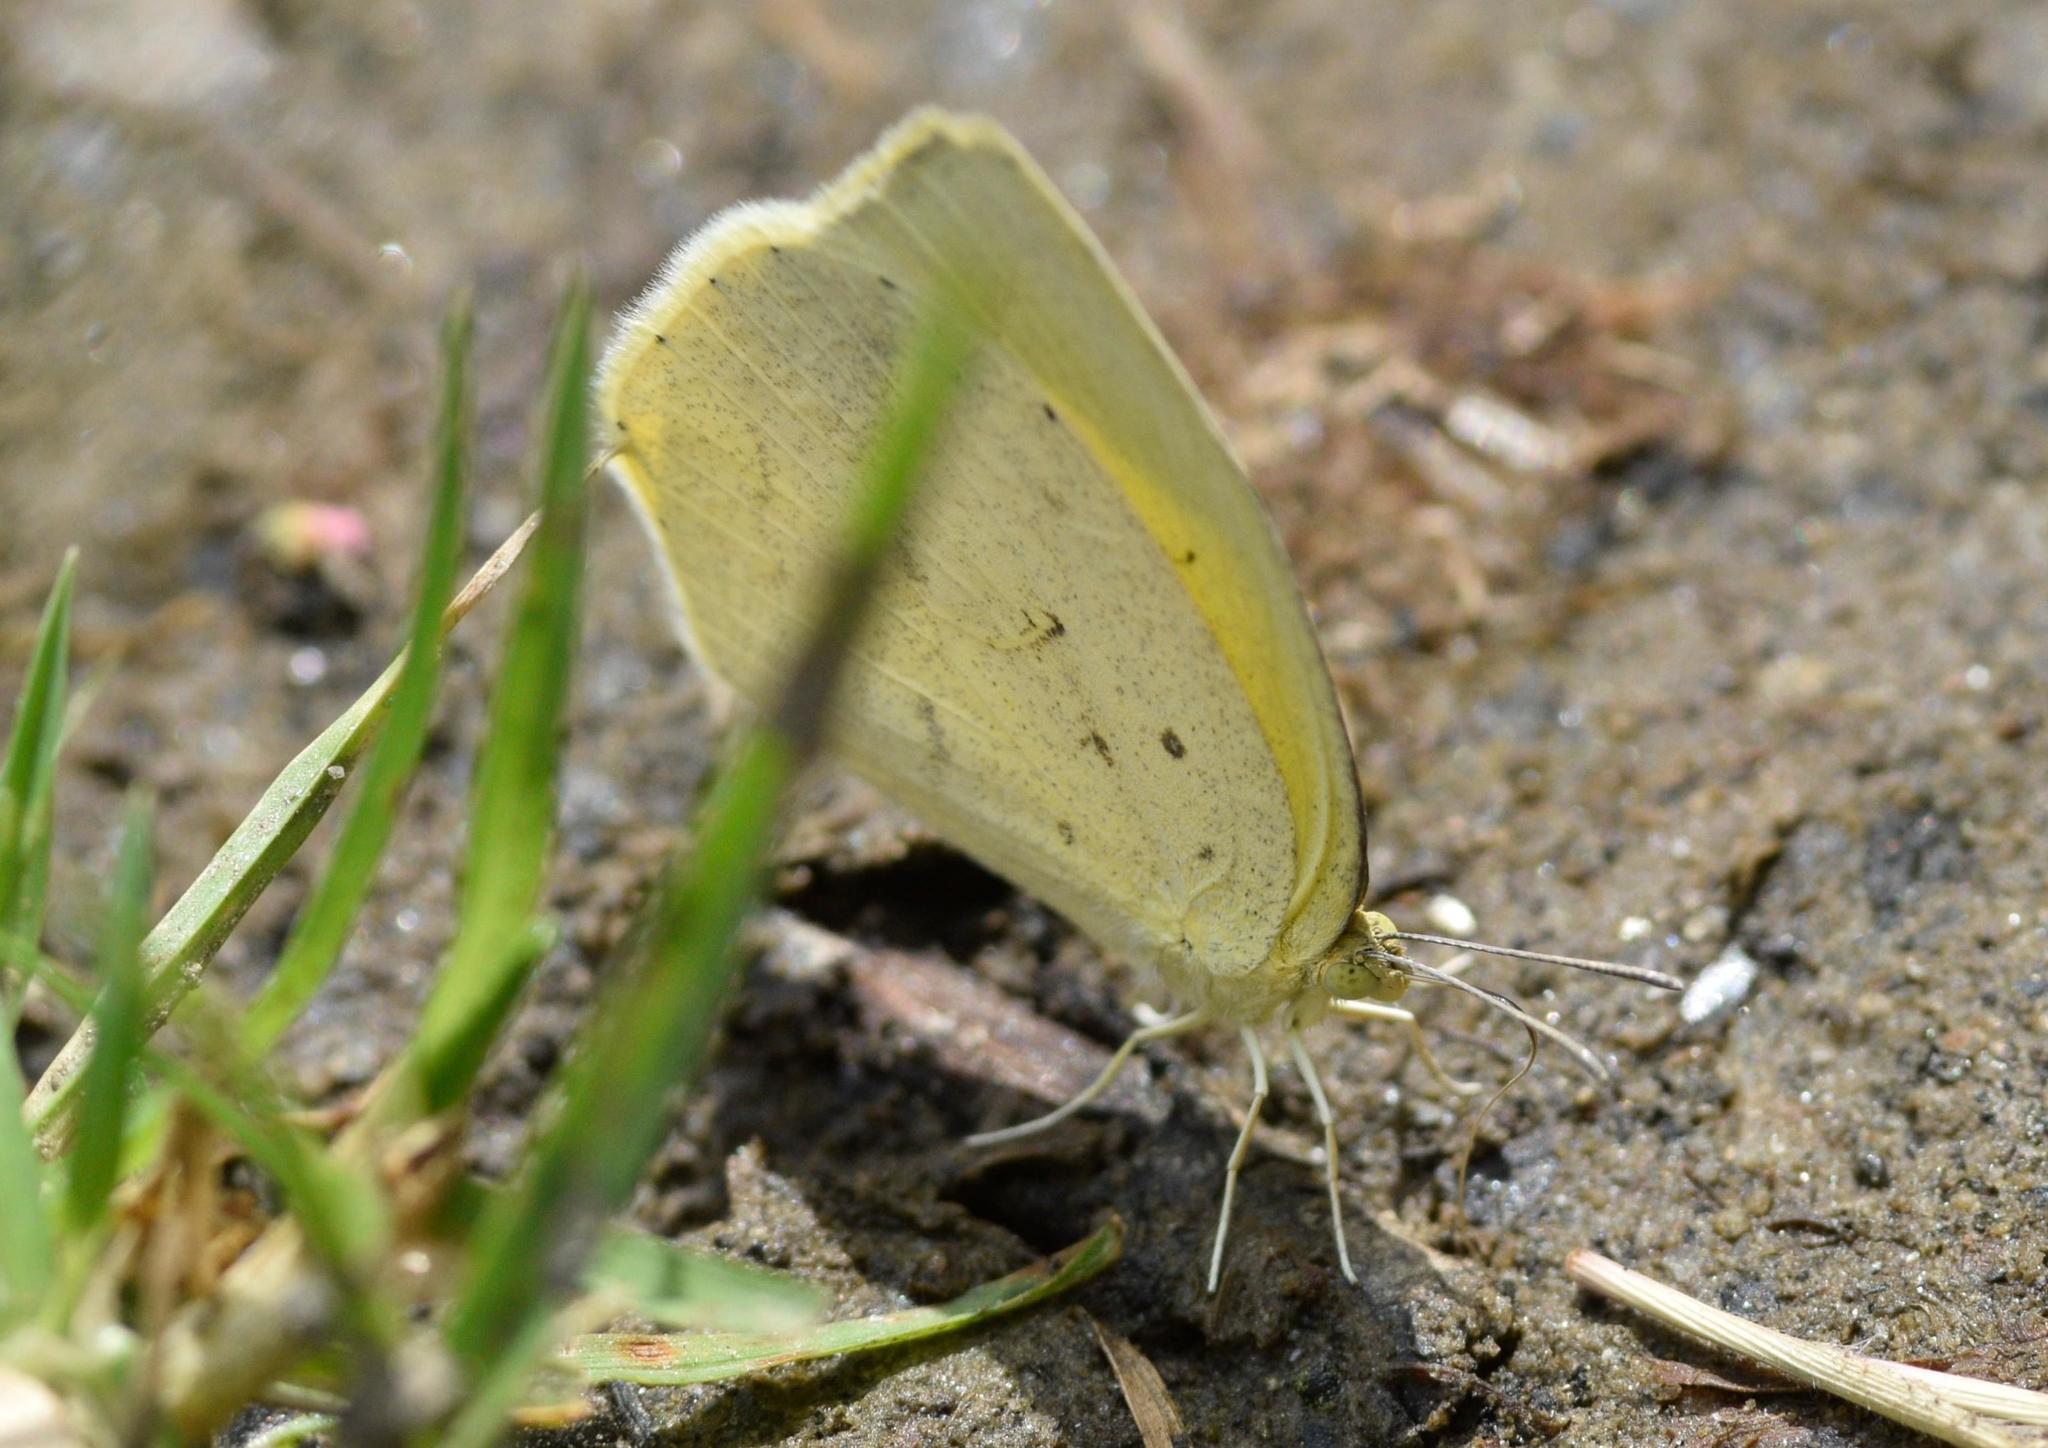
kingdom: Animalia
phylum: Arthropoda
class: Insecta
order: Lepidoptera
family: Pieridae
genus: Eurema
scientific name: Eurema laeta
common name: Spotless grass yellow
